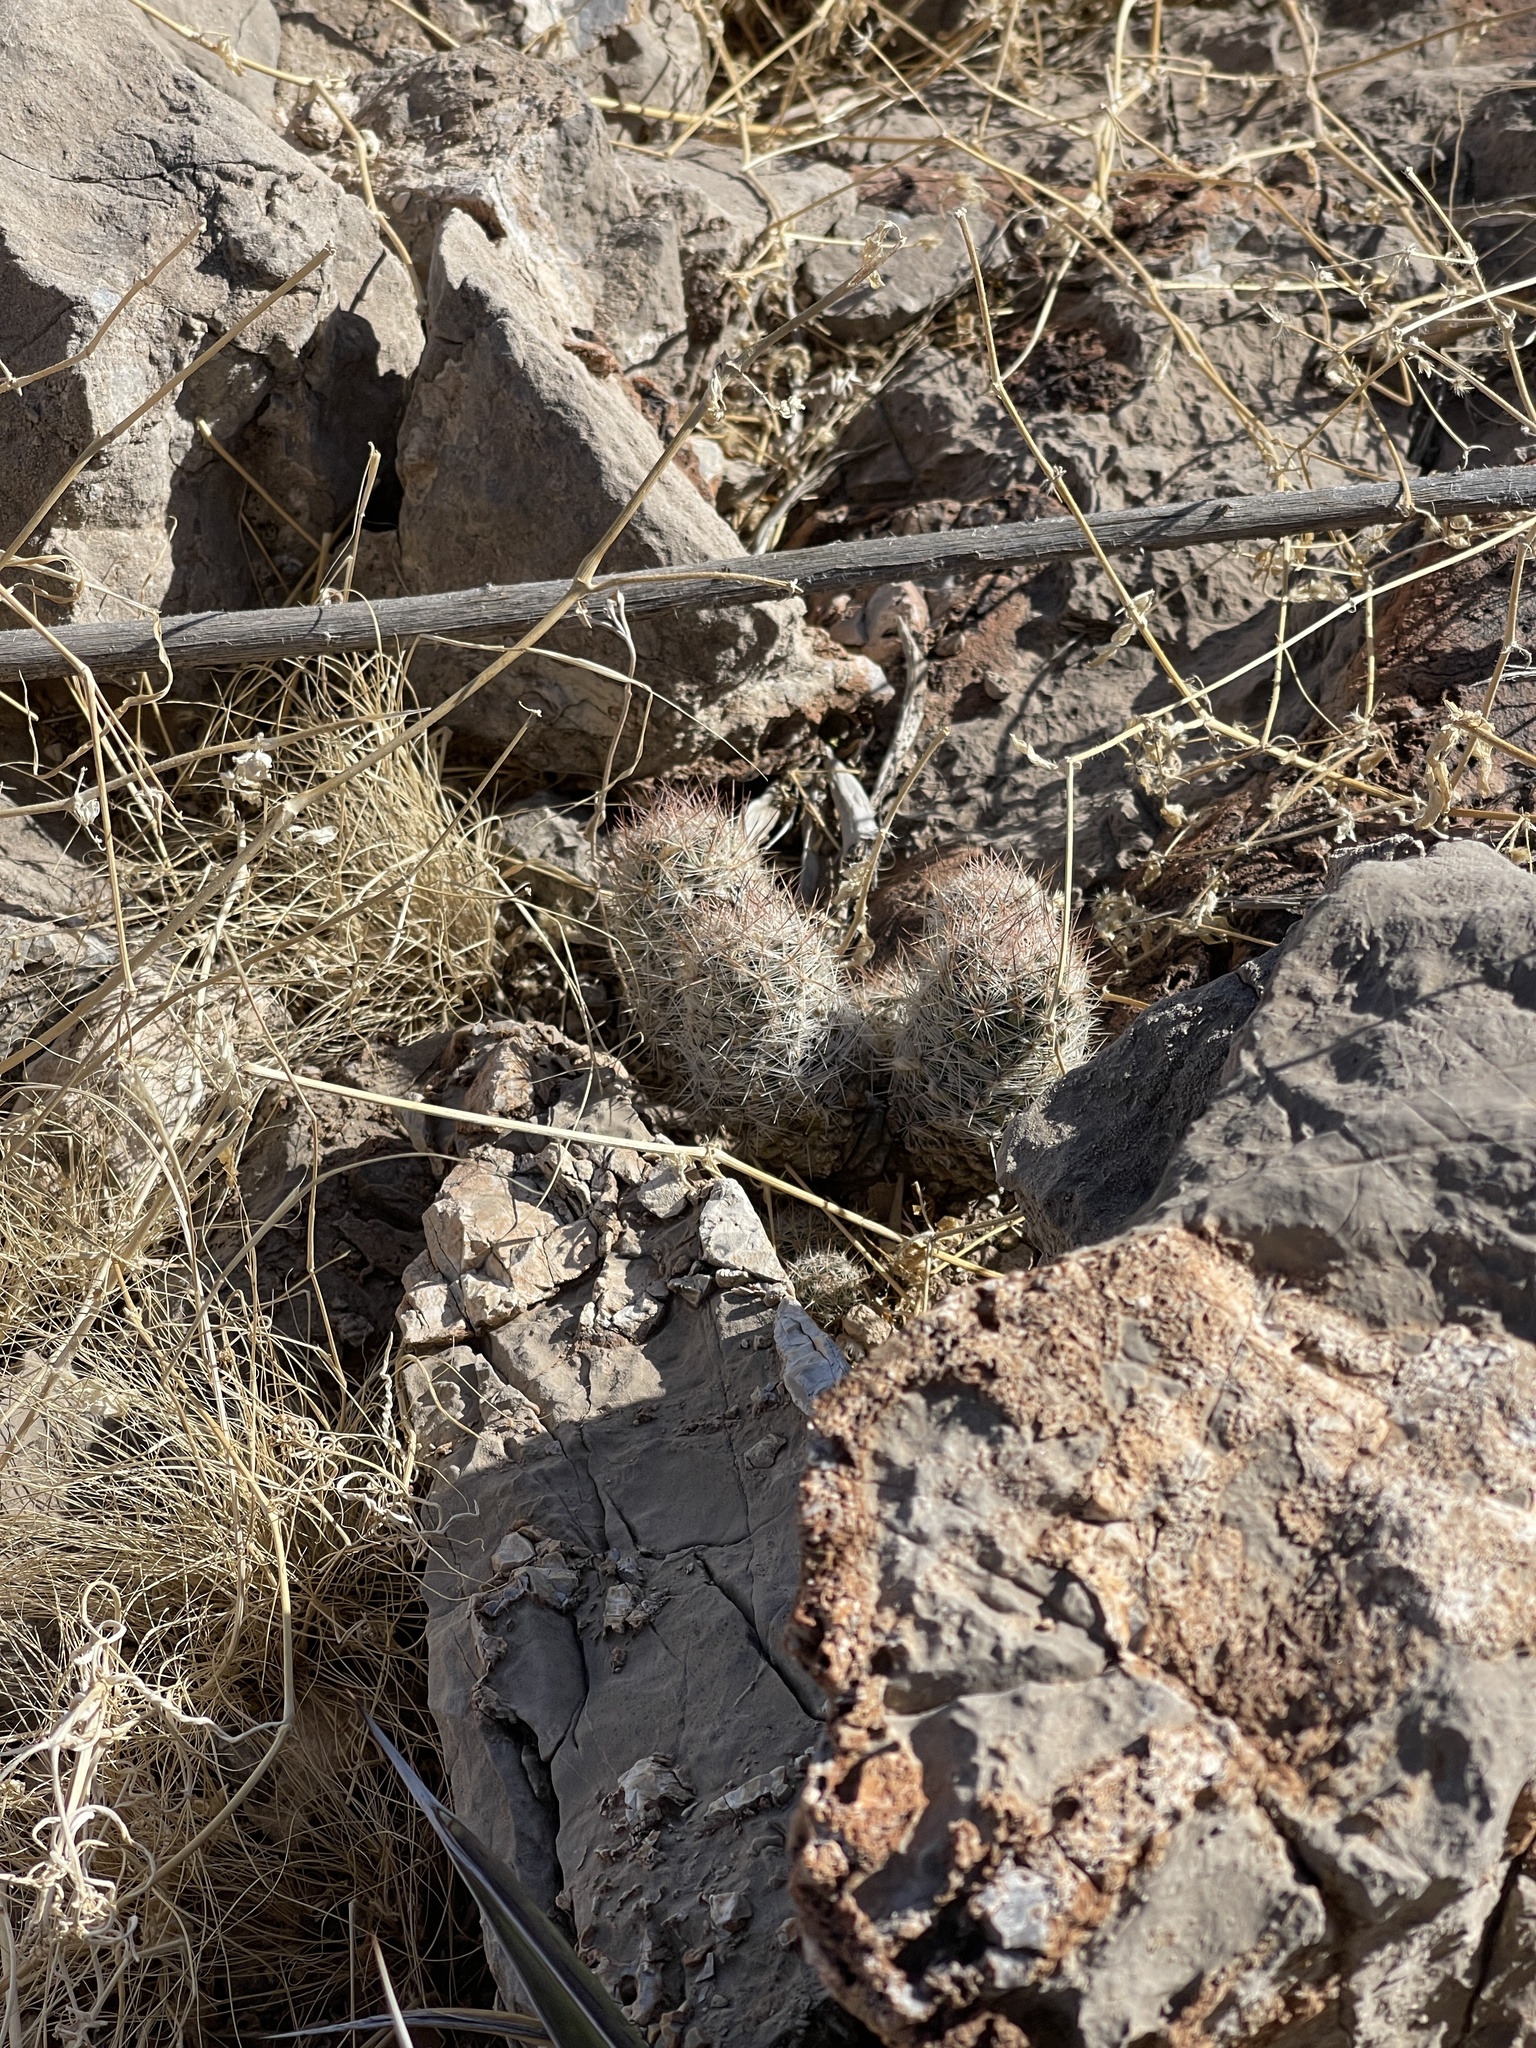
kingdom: Plantae
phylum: Tracheophyta
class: Magnoliopsida
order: Caryophyllales
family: Cactaceae
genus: Pelecyphora
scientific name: Pelecyphora tuberculosa
